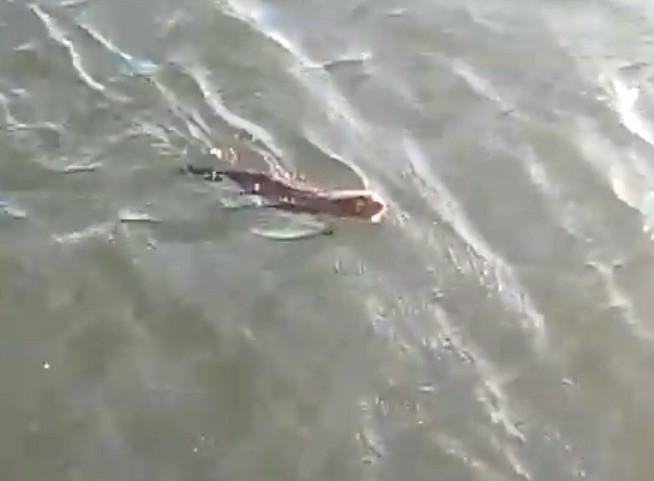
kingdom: Animalia
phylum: Chordata
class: Mammalia
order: Carnivora
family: Mustelidae
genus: Mustela
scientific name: Mustela
